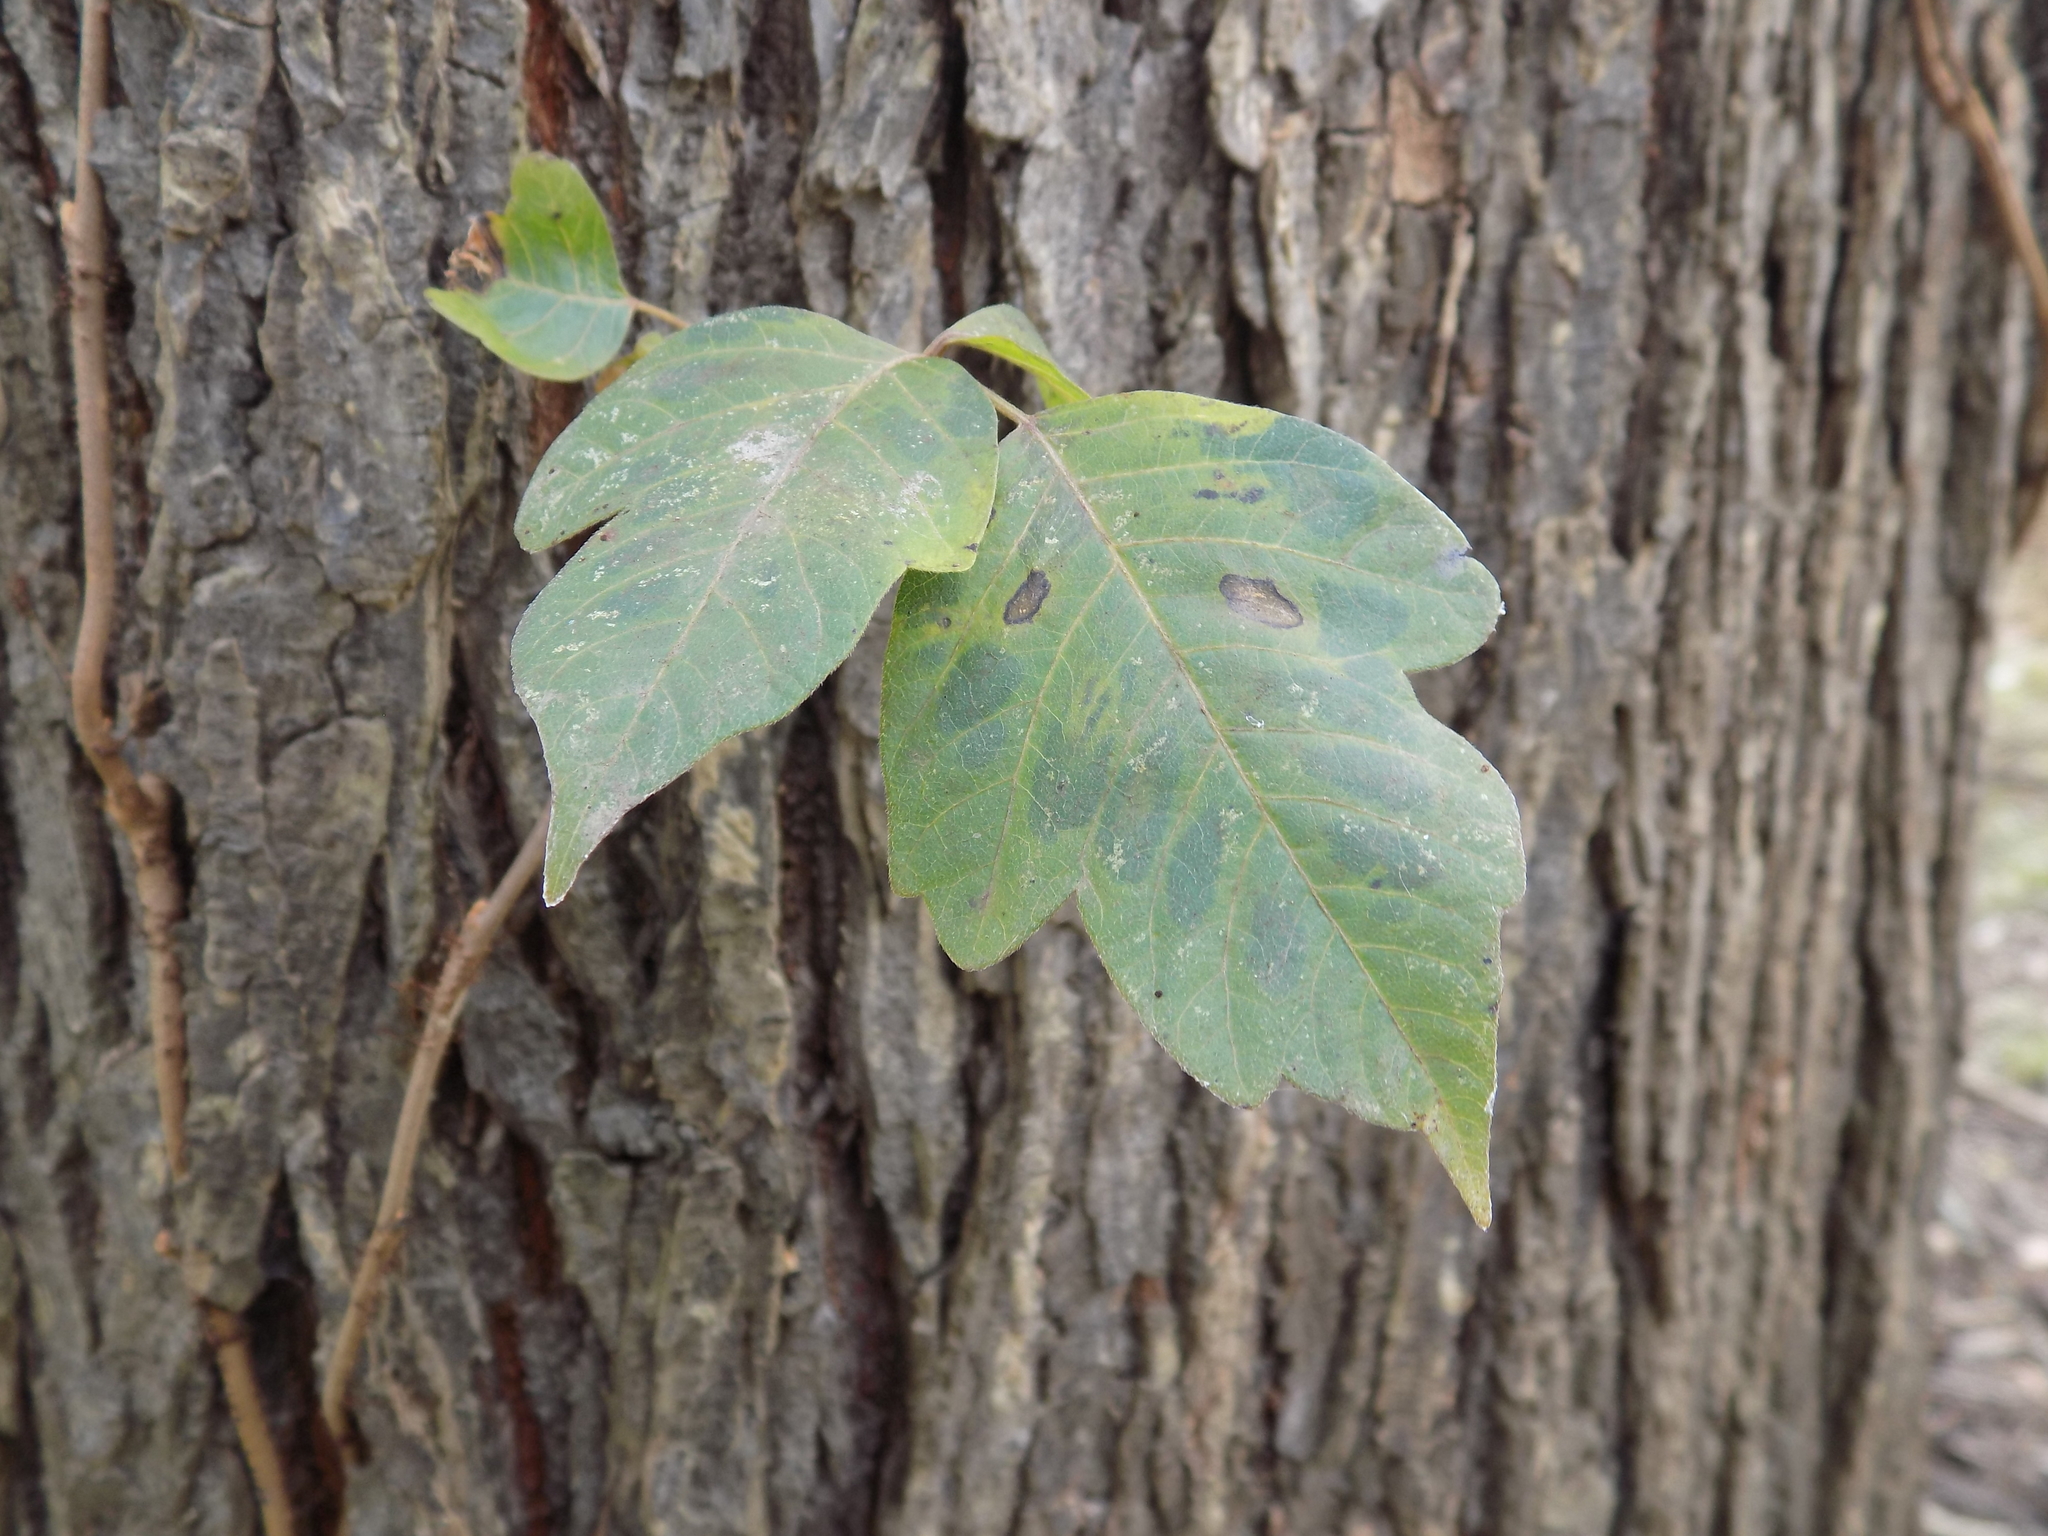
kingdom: Plantae
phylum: Tracheophyta
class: Magnoliopsida
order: Sapindales
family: Anacardiaceae
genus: Toxicodendron
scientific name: Toxicodendron radicans
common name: Poison ivy
